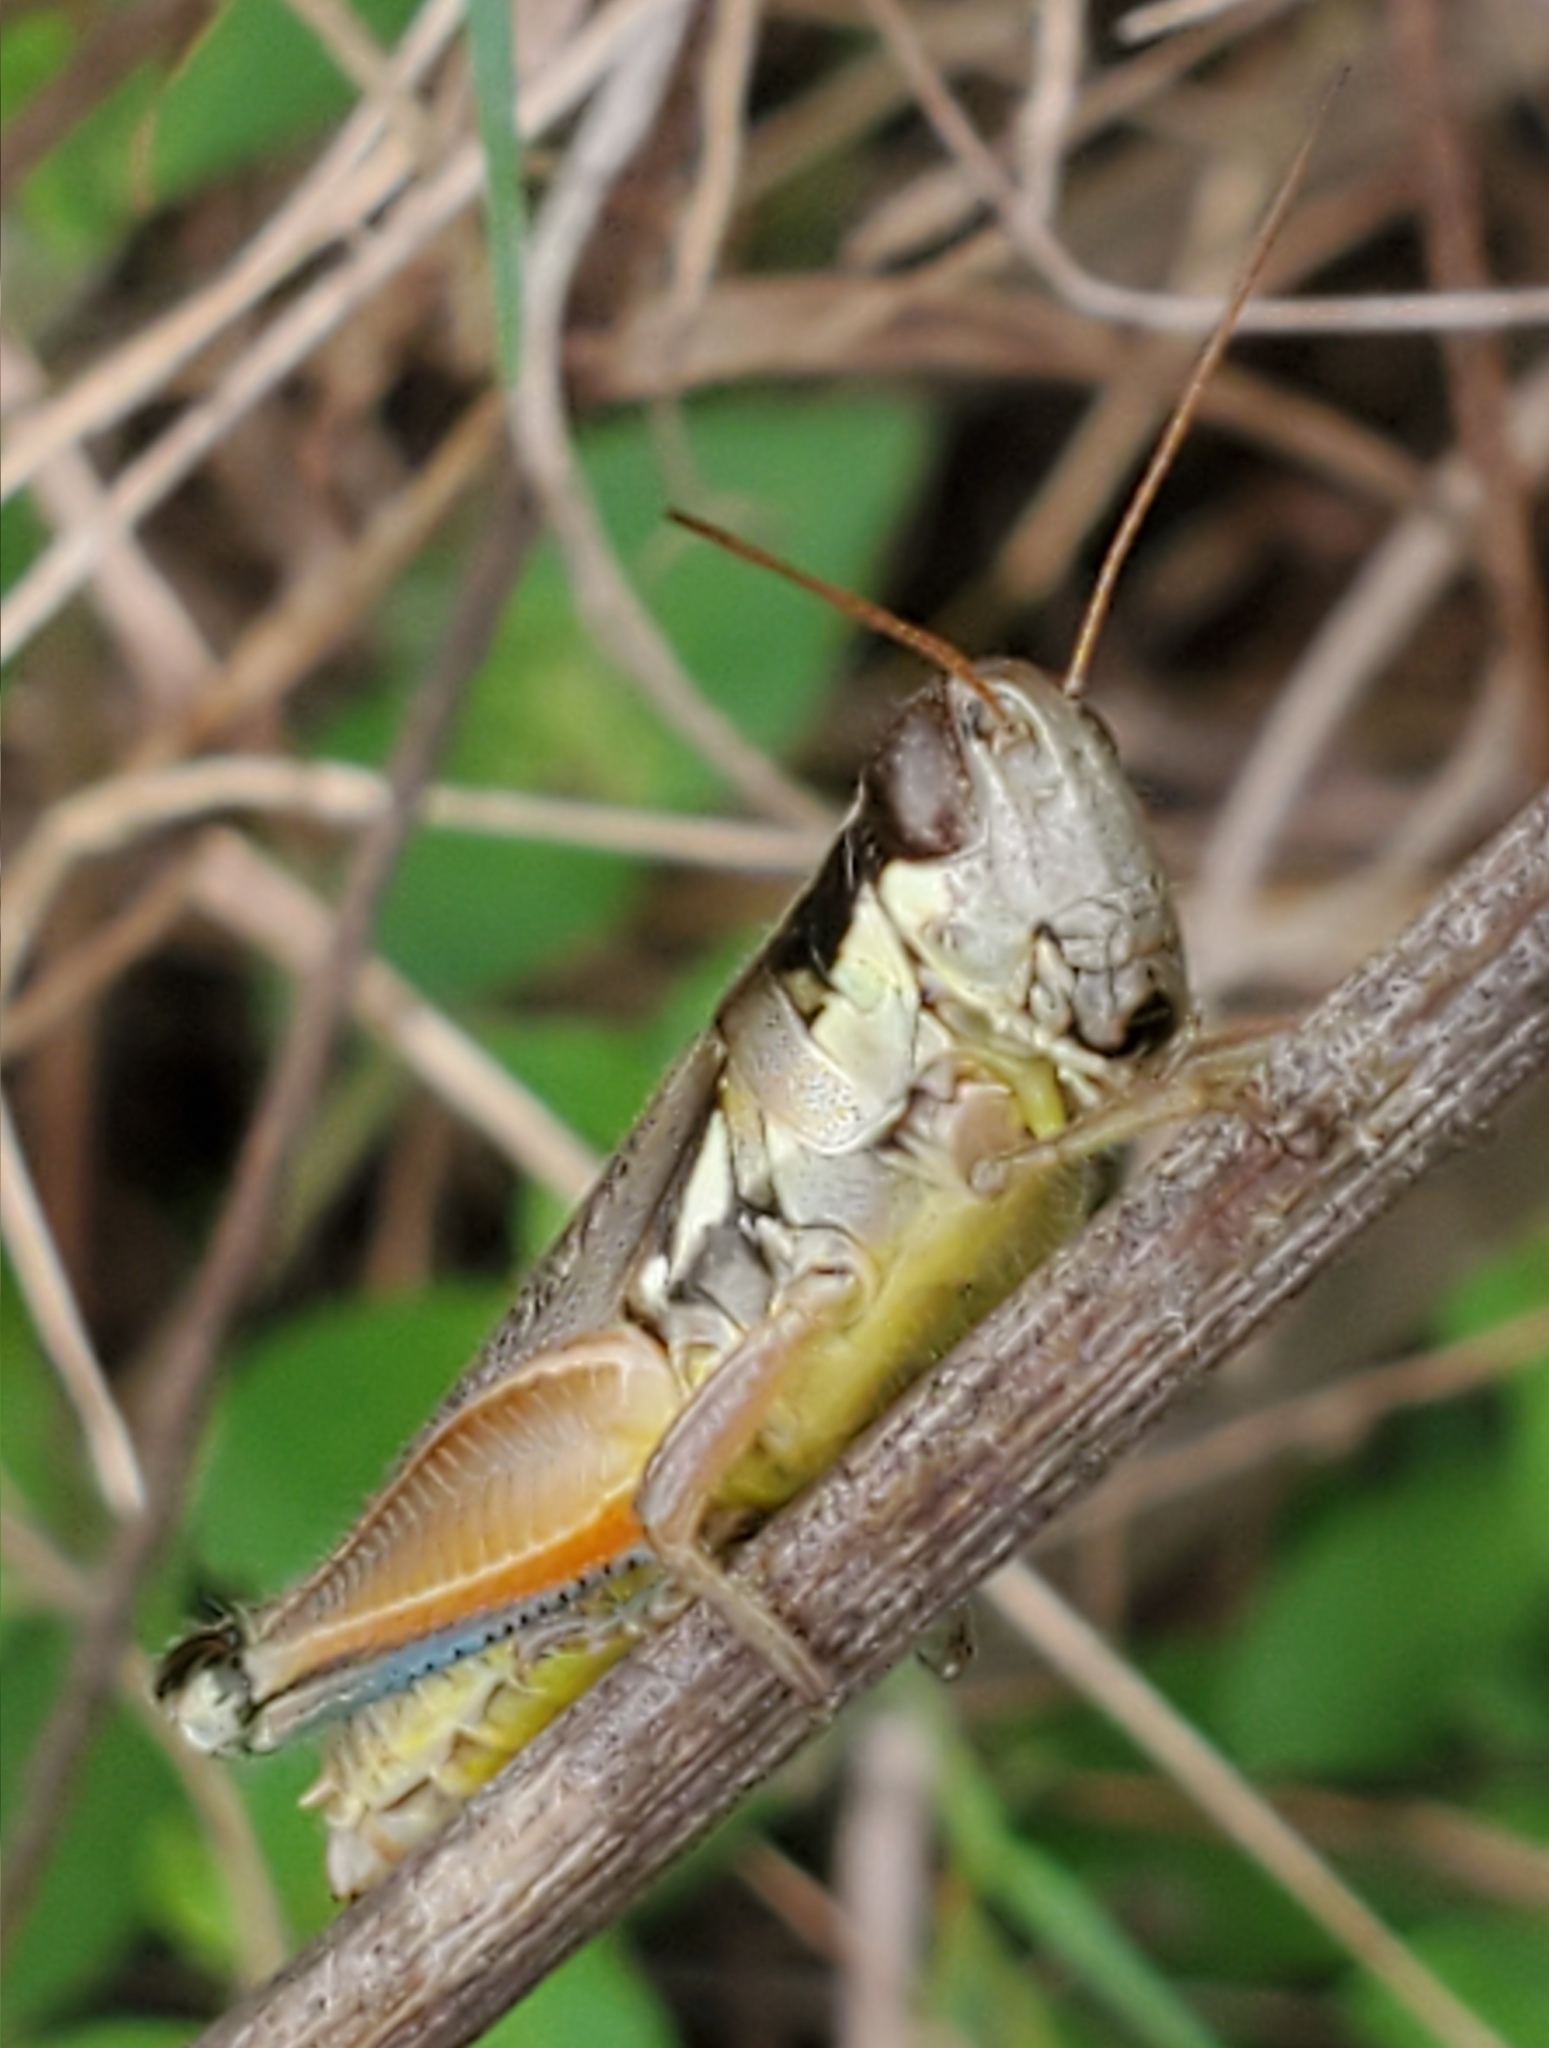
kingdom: Animalia
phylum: Arthropoda
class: Insecta
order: Orthoptera
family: Acrididae
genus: Paroxya
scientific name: Paroxya atlantica
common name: Atlantic grasshopper
